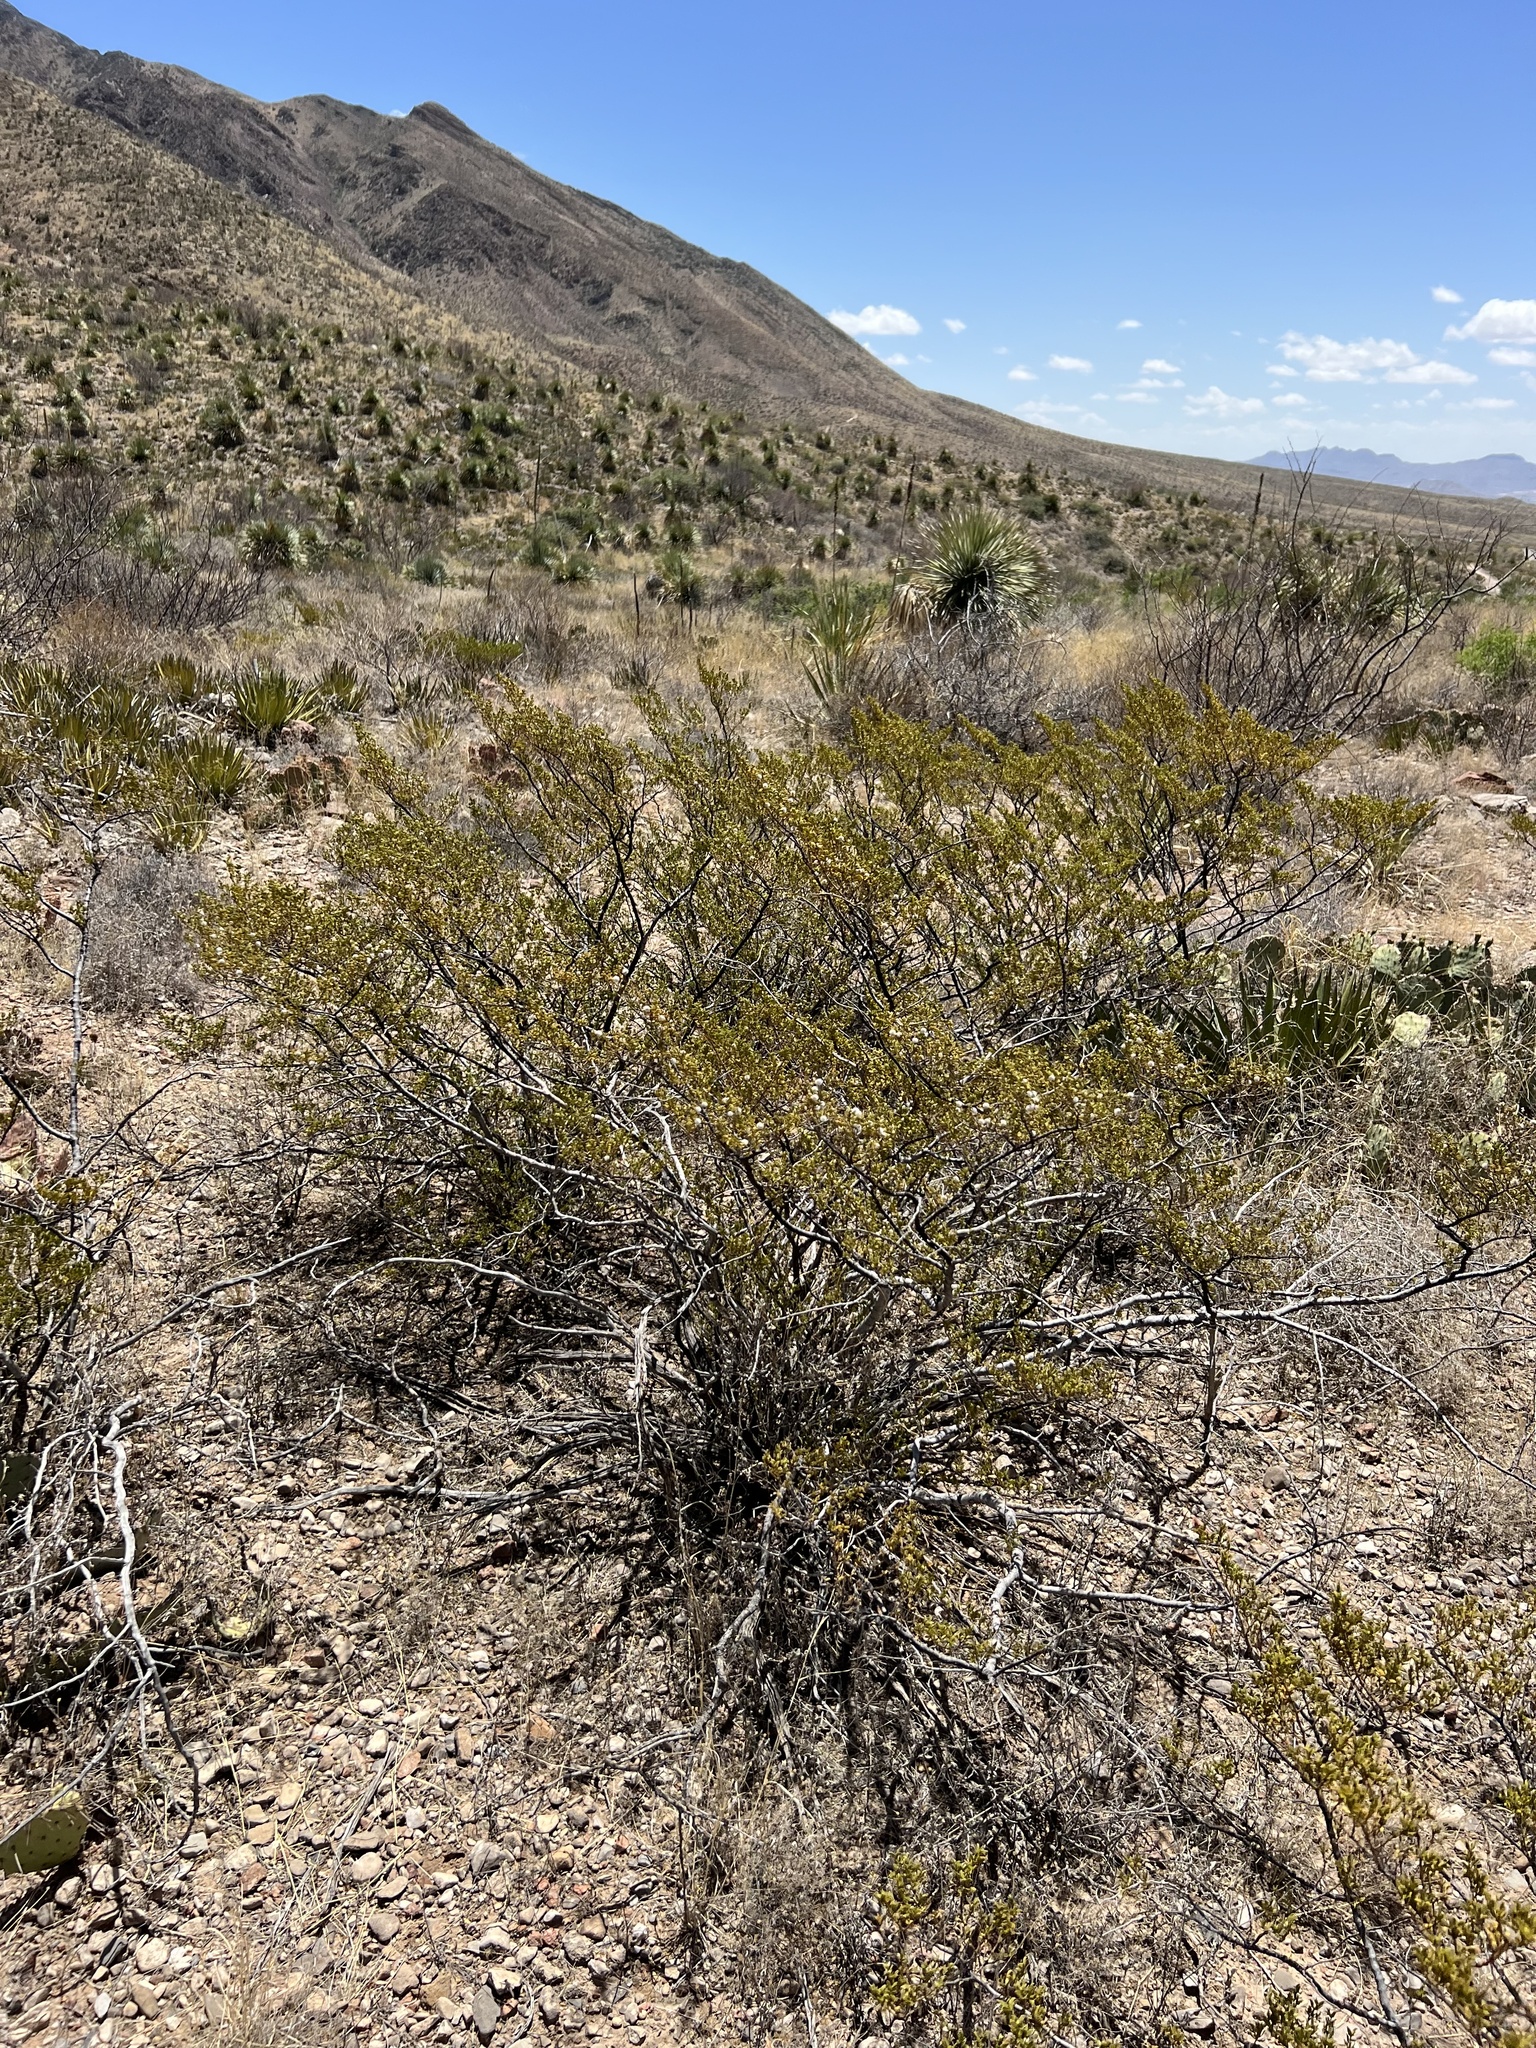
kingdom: Plantae
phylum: Tracheophyta
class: Magnoliopsida
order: Zygophyllales
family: Zygophyllaceae
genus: Larrea
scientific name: Larrea tridentata
